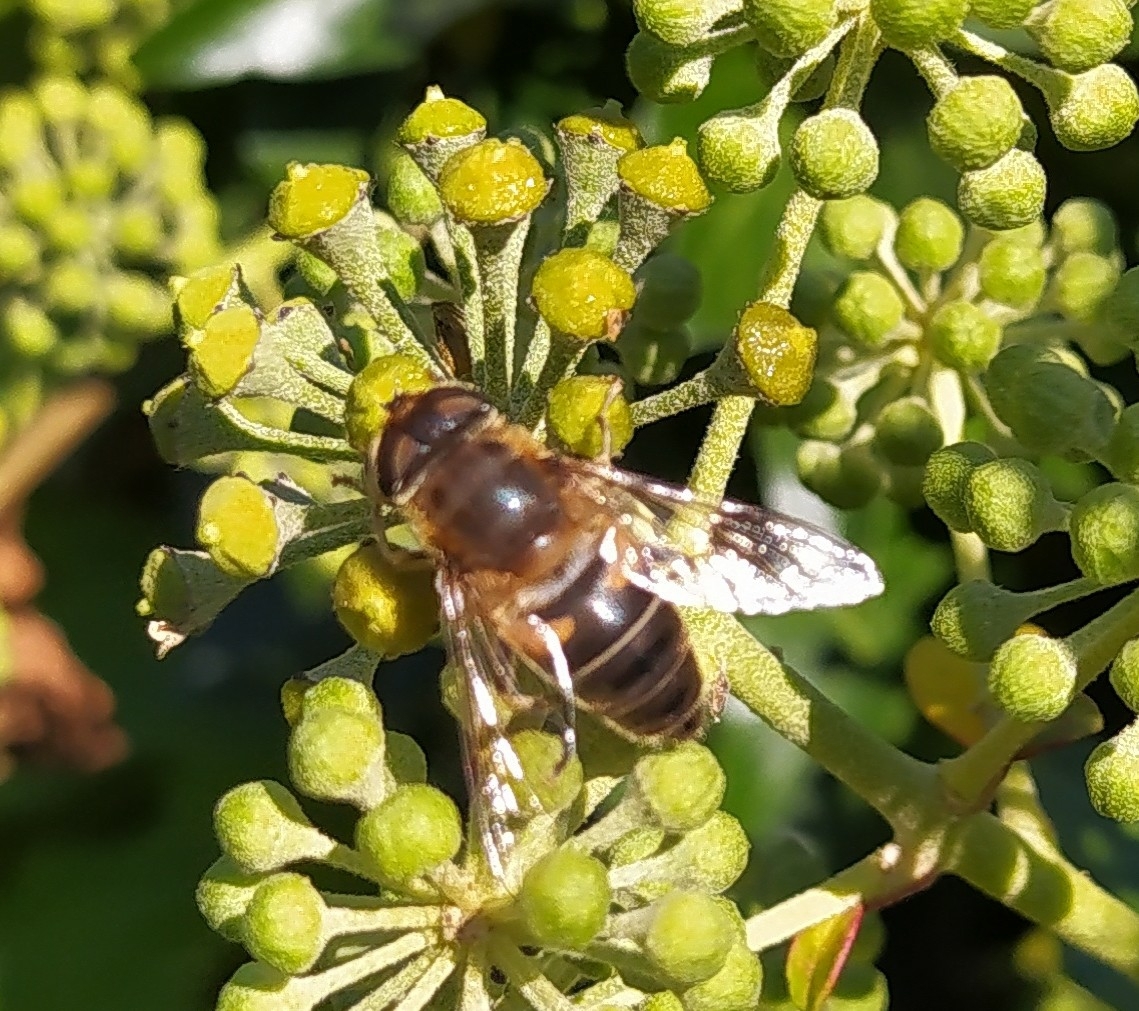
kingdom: Animalia
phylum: Arthropoda
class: Insecta
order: Diptera
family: Syrphidae
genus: Eristalis
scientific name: Eristalis pertinax
